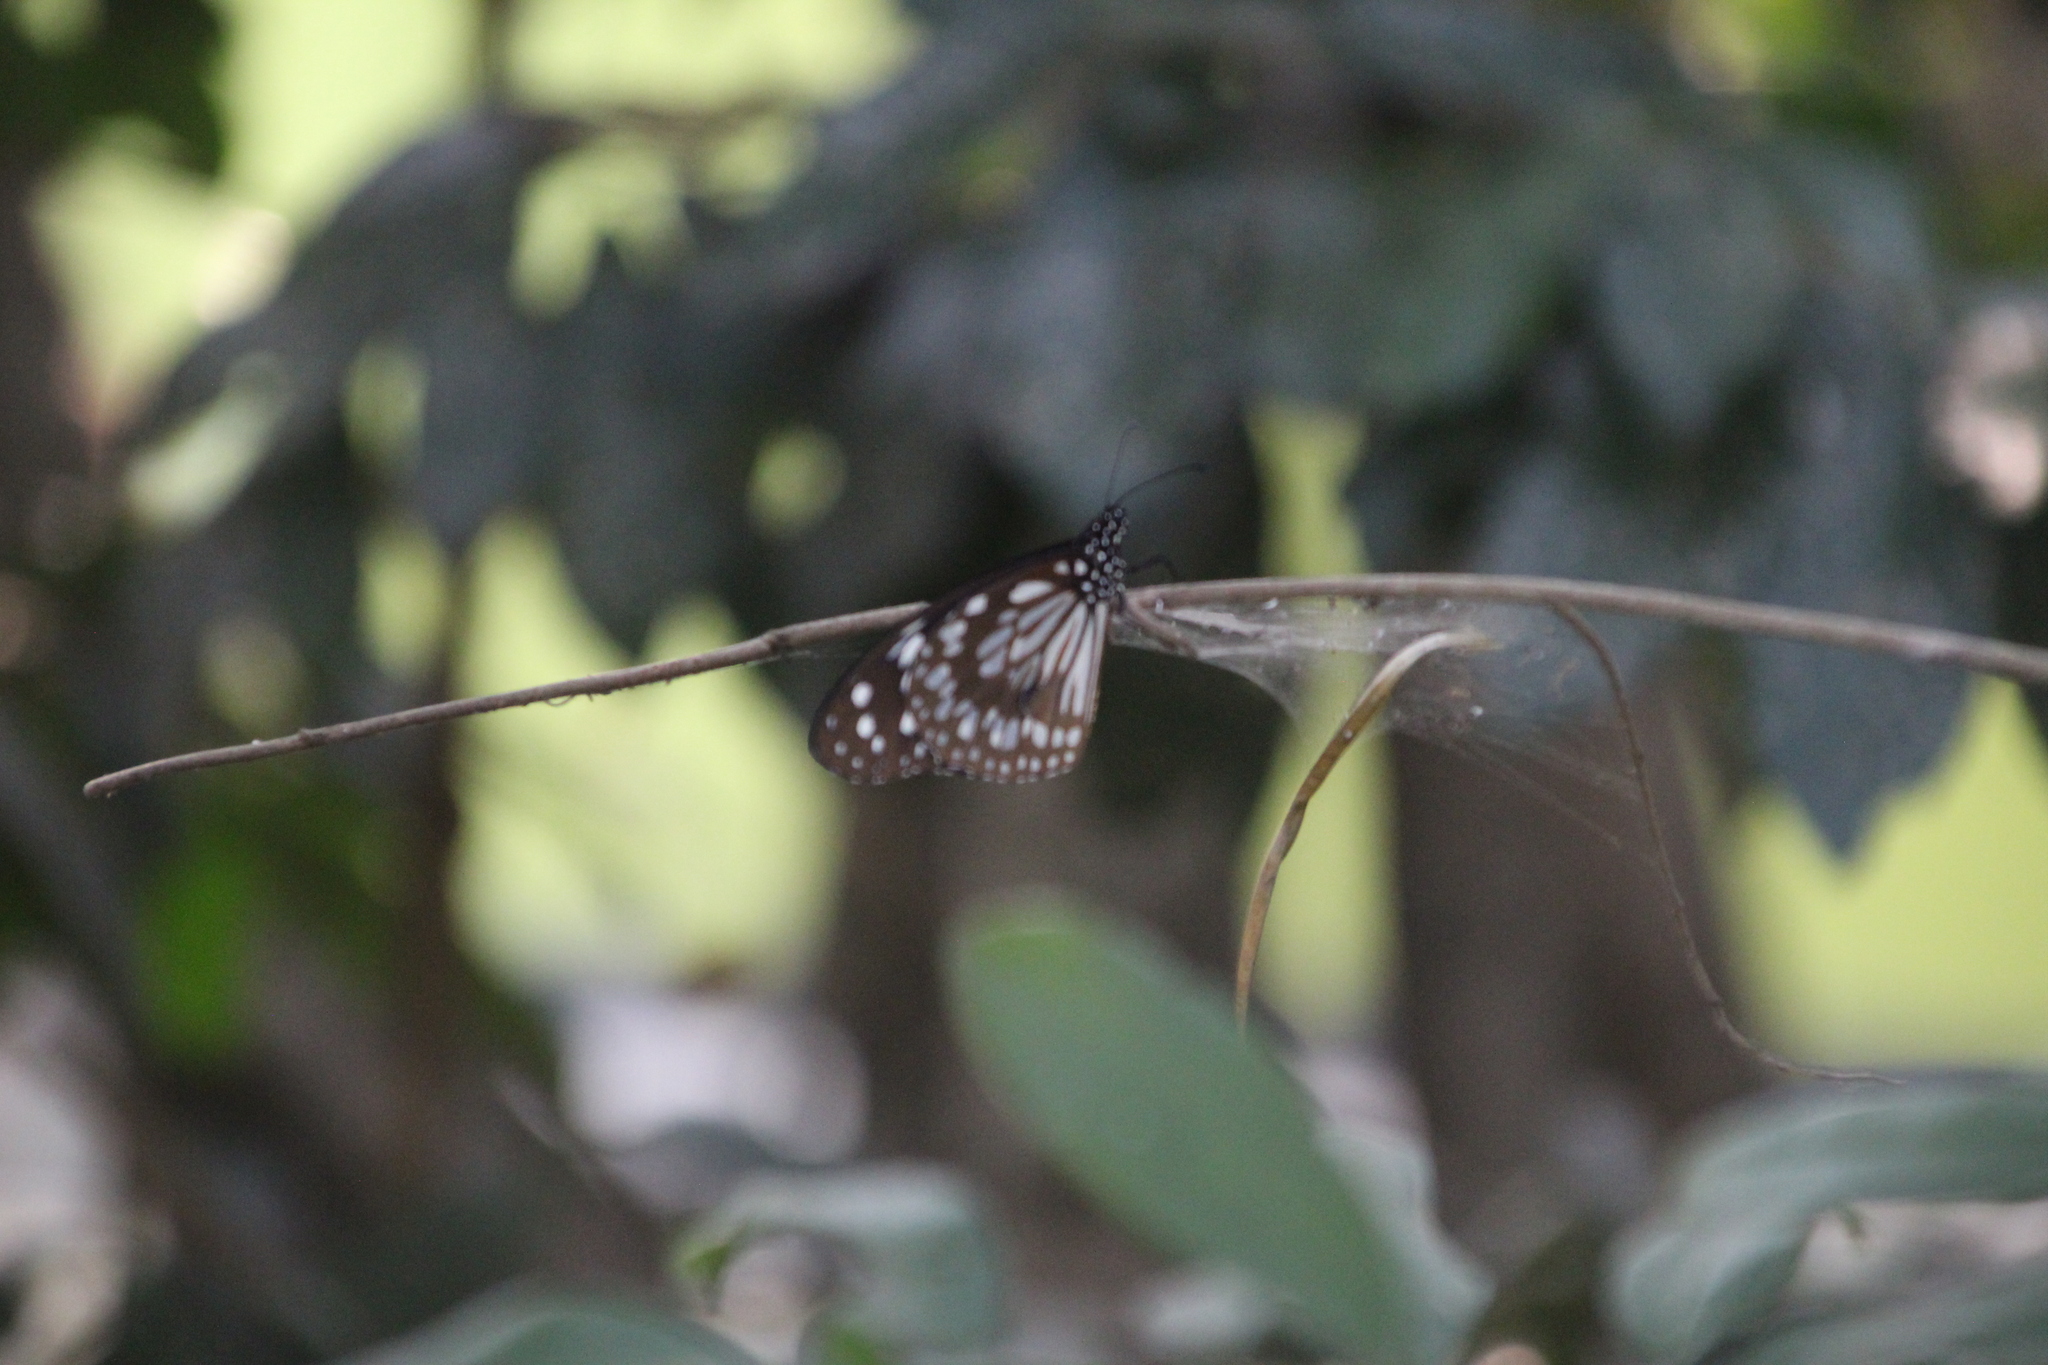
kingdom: Animalia
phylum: Arthropoda
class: Insecta
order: Lepidoptera
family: Nymphalidae
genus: Tirumala
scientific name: Tirumala petiverana
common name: Blue monarch
